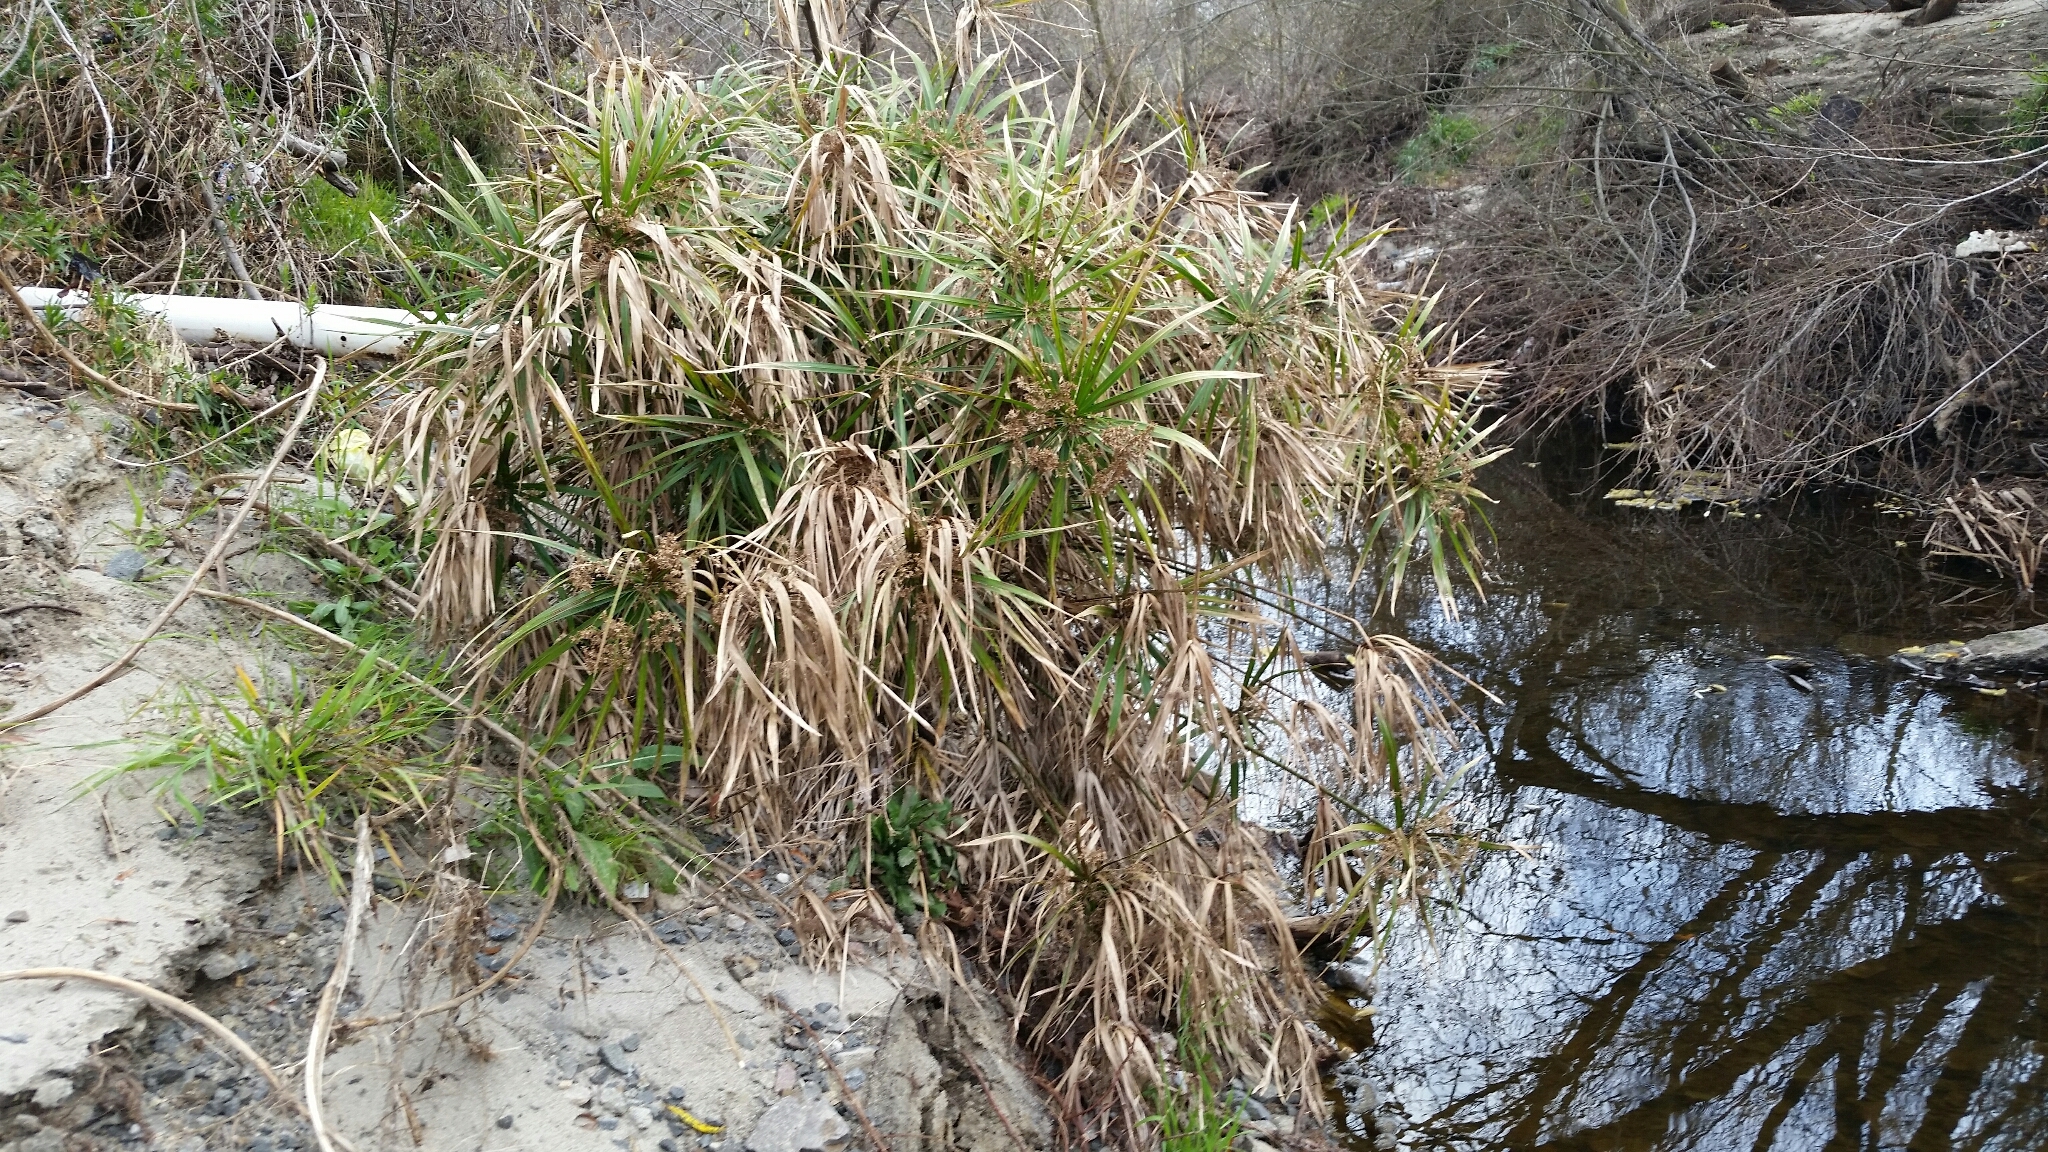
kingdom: Plantae
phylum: Tracheophyta
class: Liliopsida
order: Poales
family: Cyperaceae
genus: Cyperus
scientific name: Cyperus alternifolius
